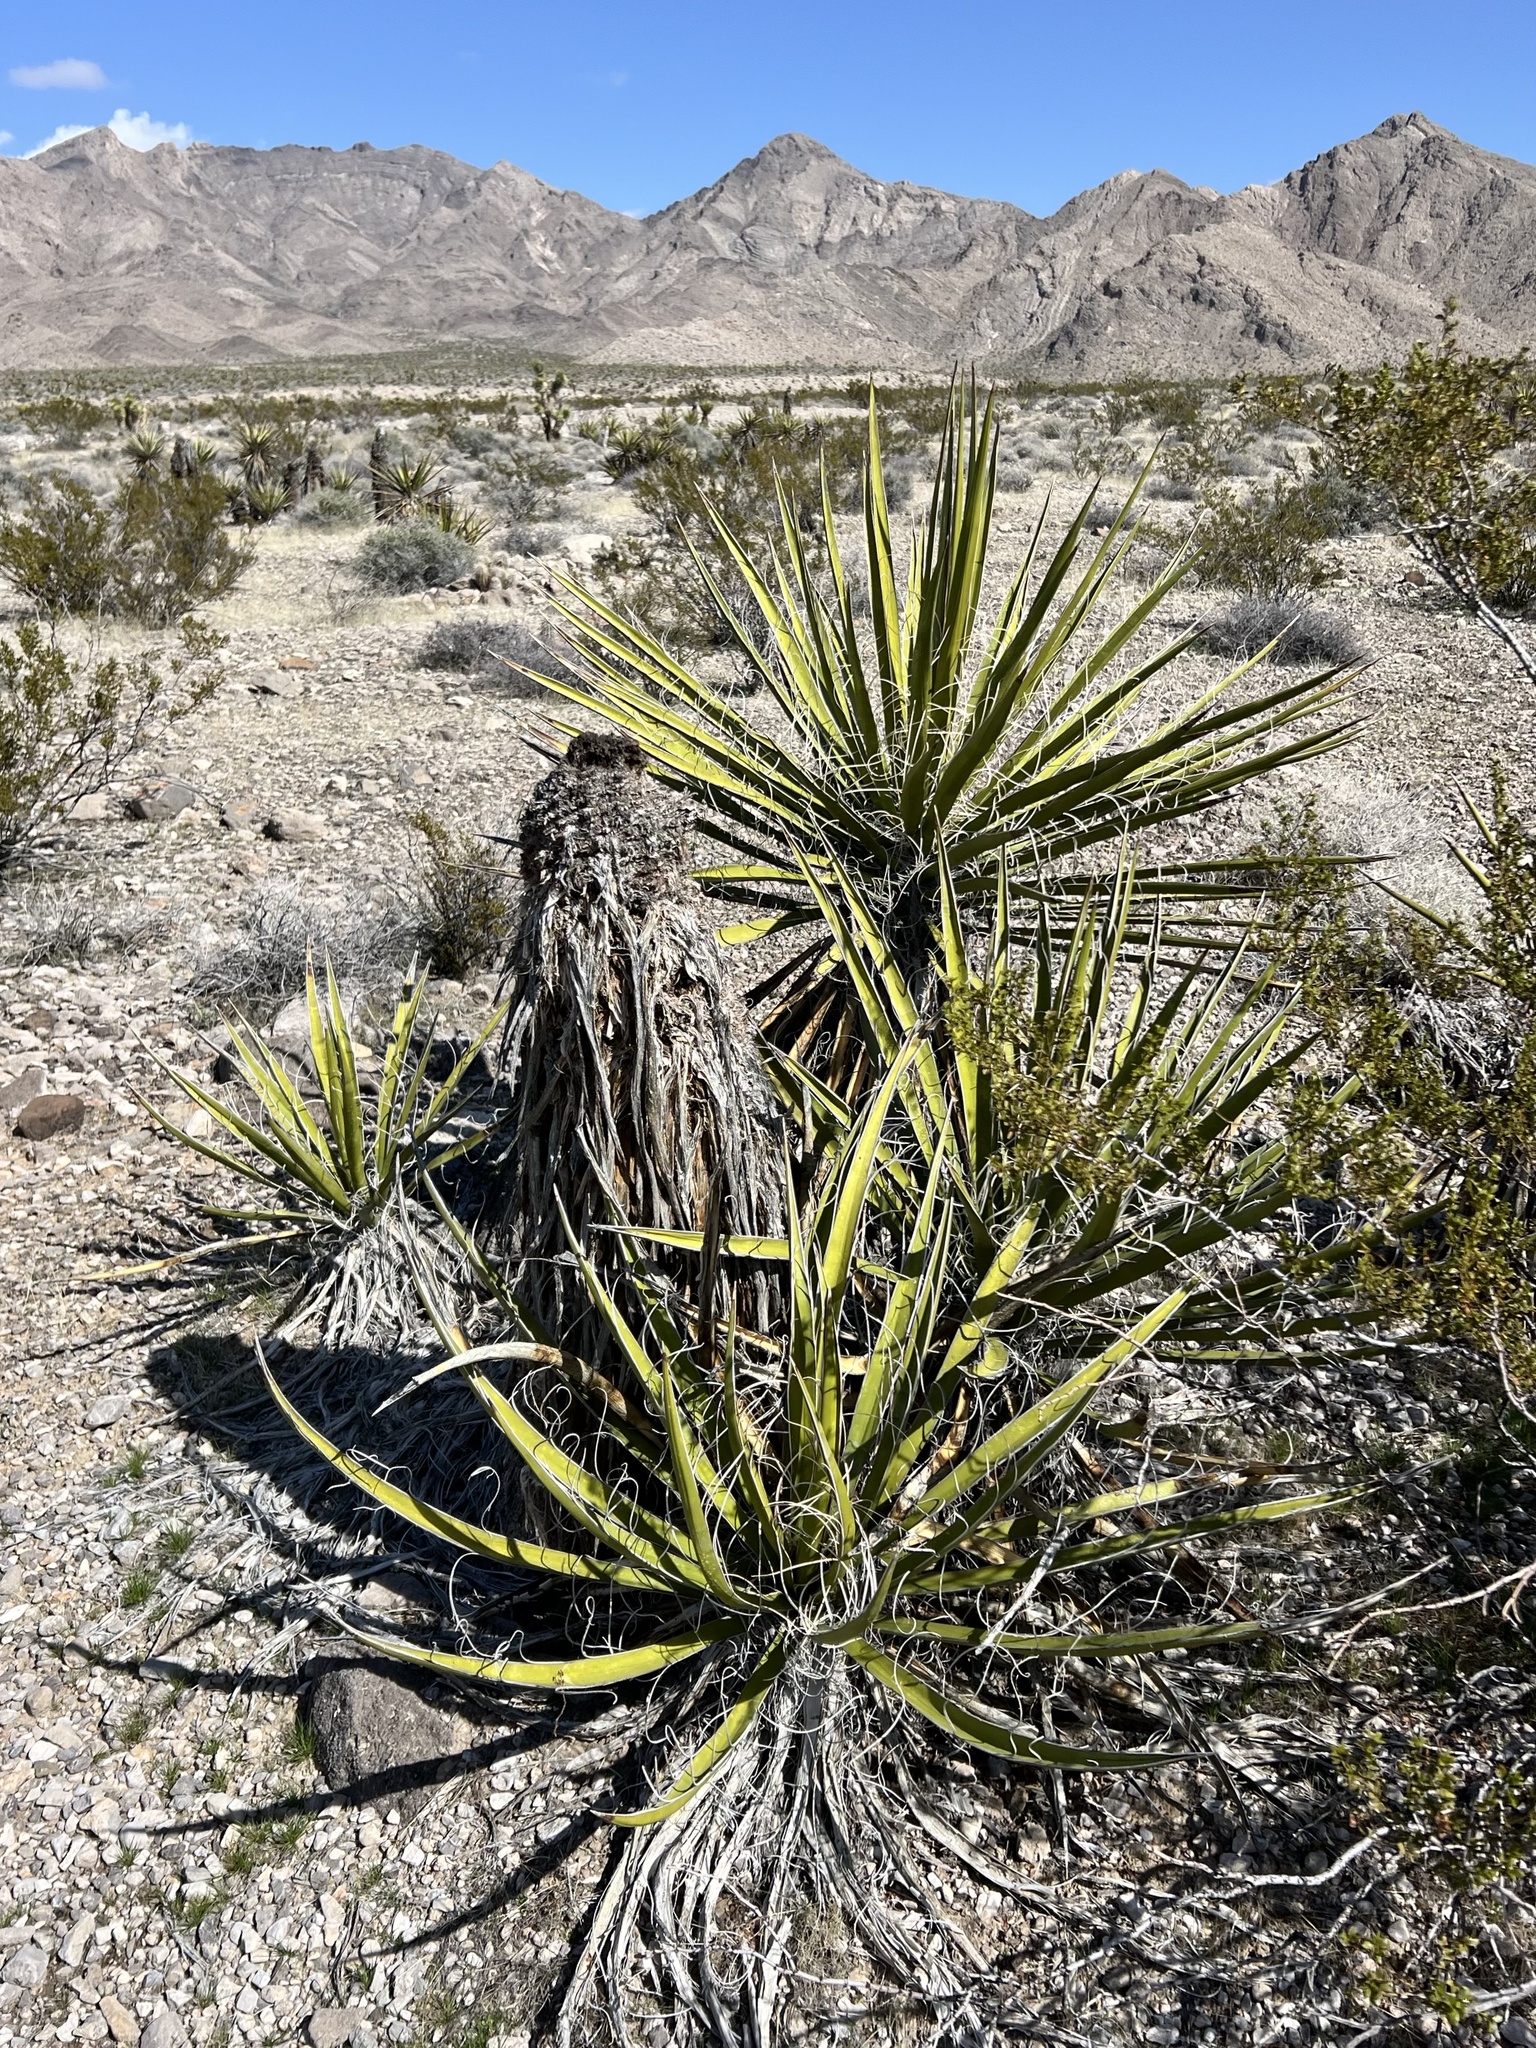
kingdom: Plantae
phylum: Tracheophyta
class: Liliopsida
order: Asparagales
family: Asparagaceae
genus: Yucca
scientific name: Yucca schidigera
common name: Mojave yucca
